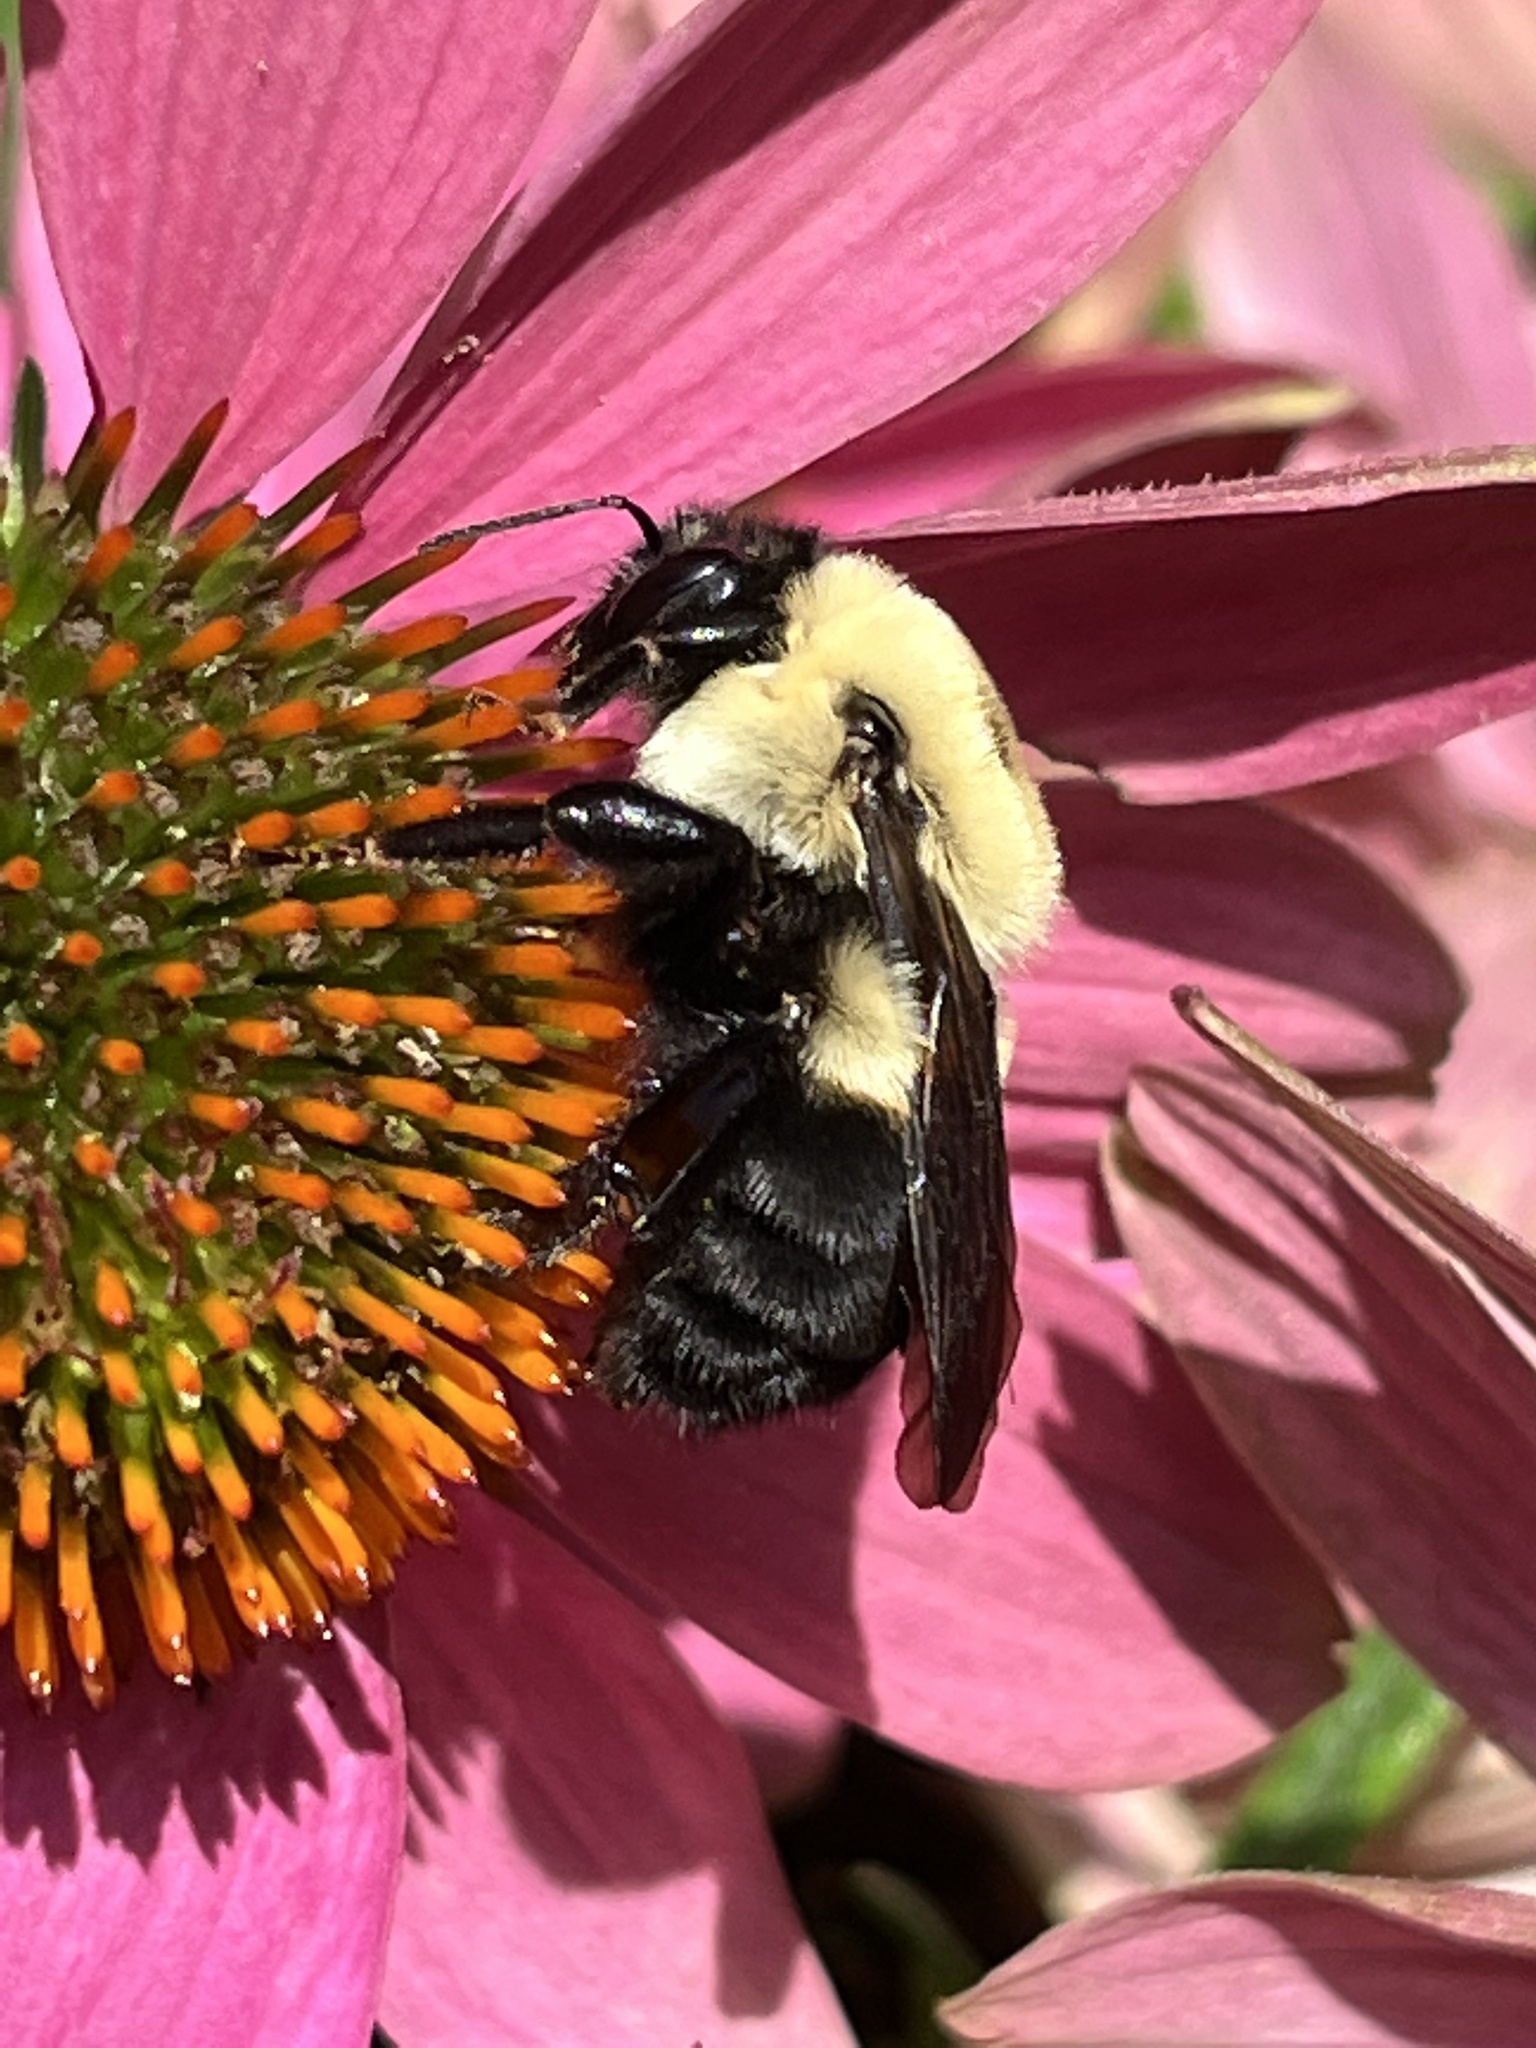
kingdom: Animalia
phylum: Arthropoda
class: Insecta
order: Hymenoptera
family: Apidae
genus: Bombus
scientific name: Bombus griseocollis
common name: Brown-belted bumble bee
